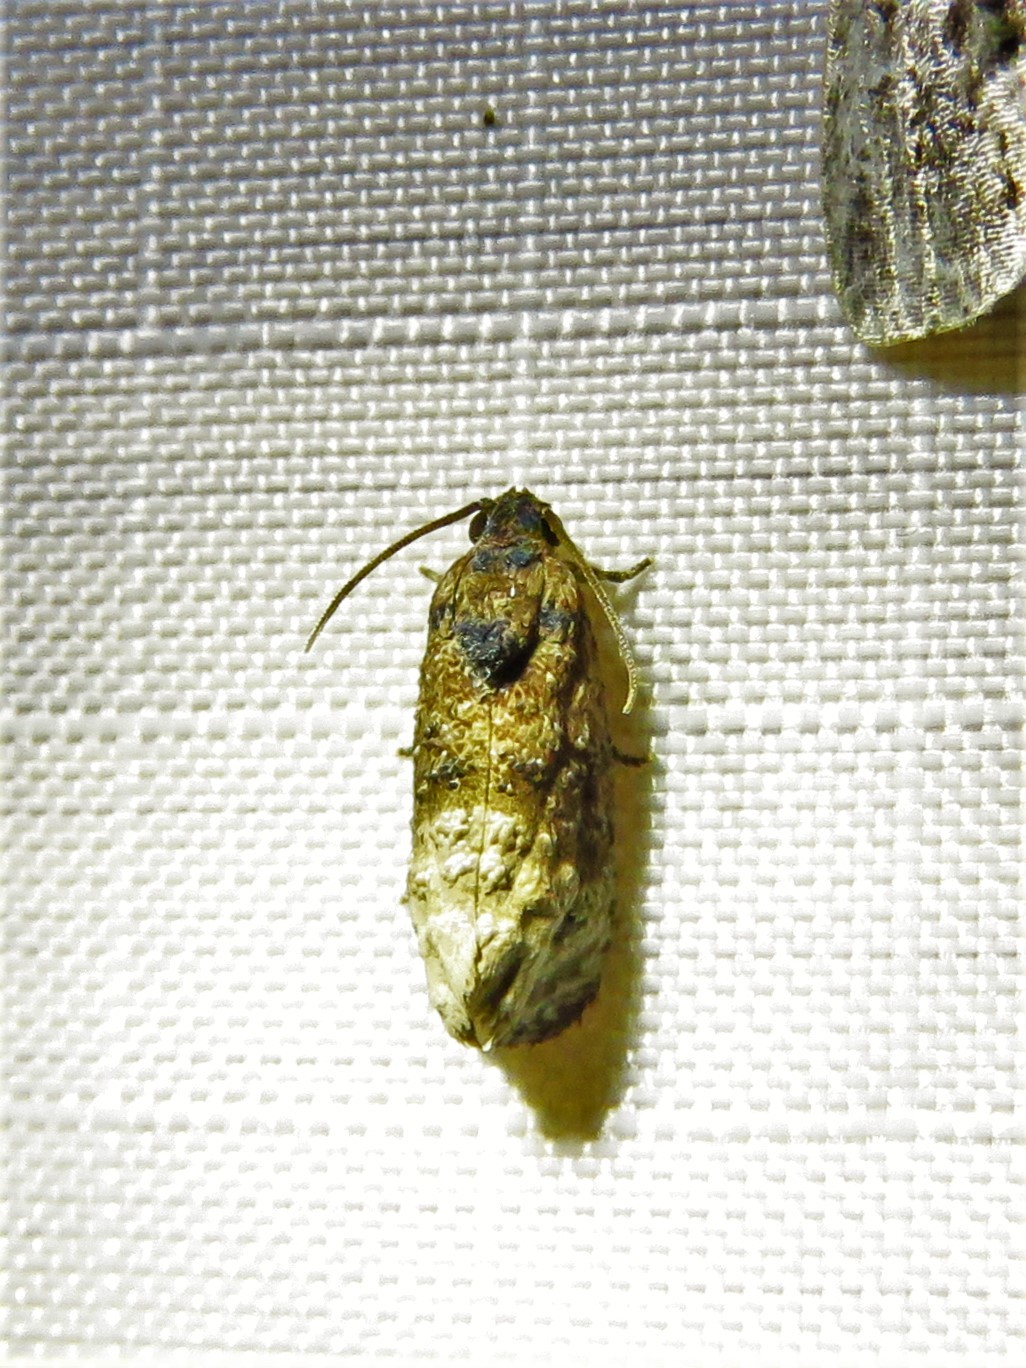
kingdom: Animalia
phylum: Arthropoda
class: Insecta
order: Lepidoptera
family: Tortricidae
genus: Ecdytolopha
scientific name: Ecdytolopha mana
